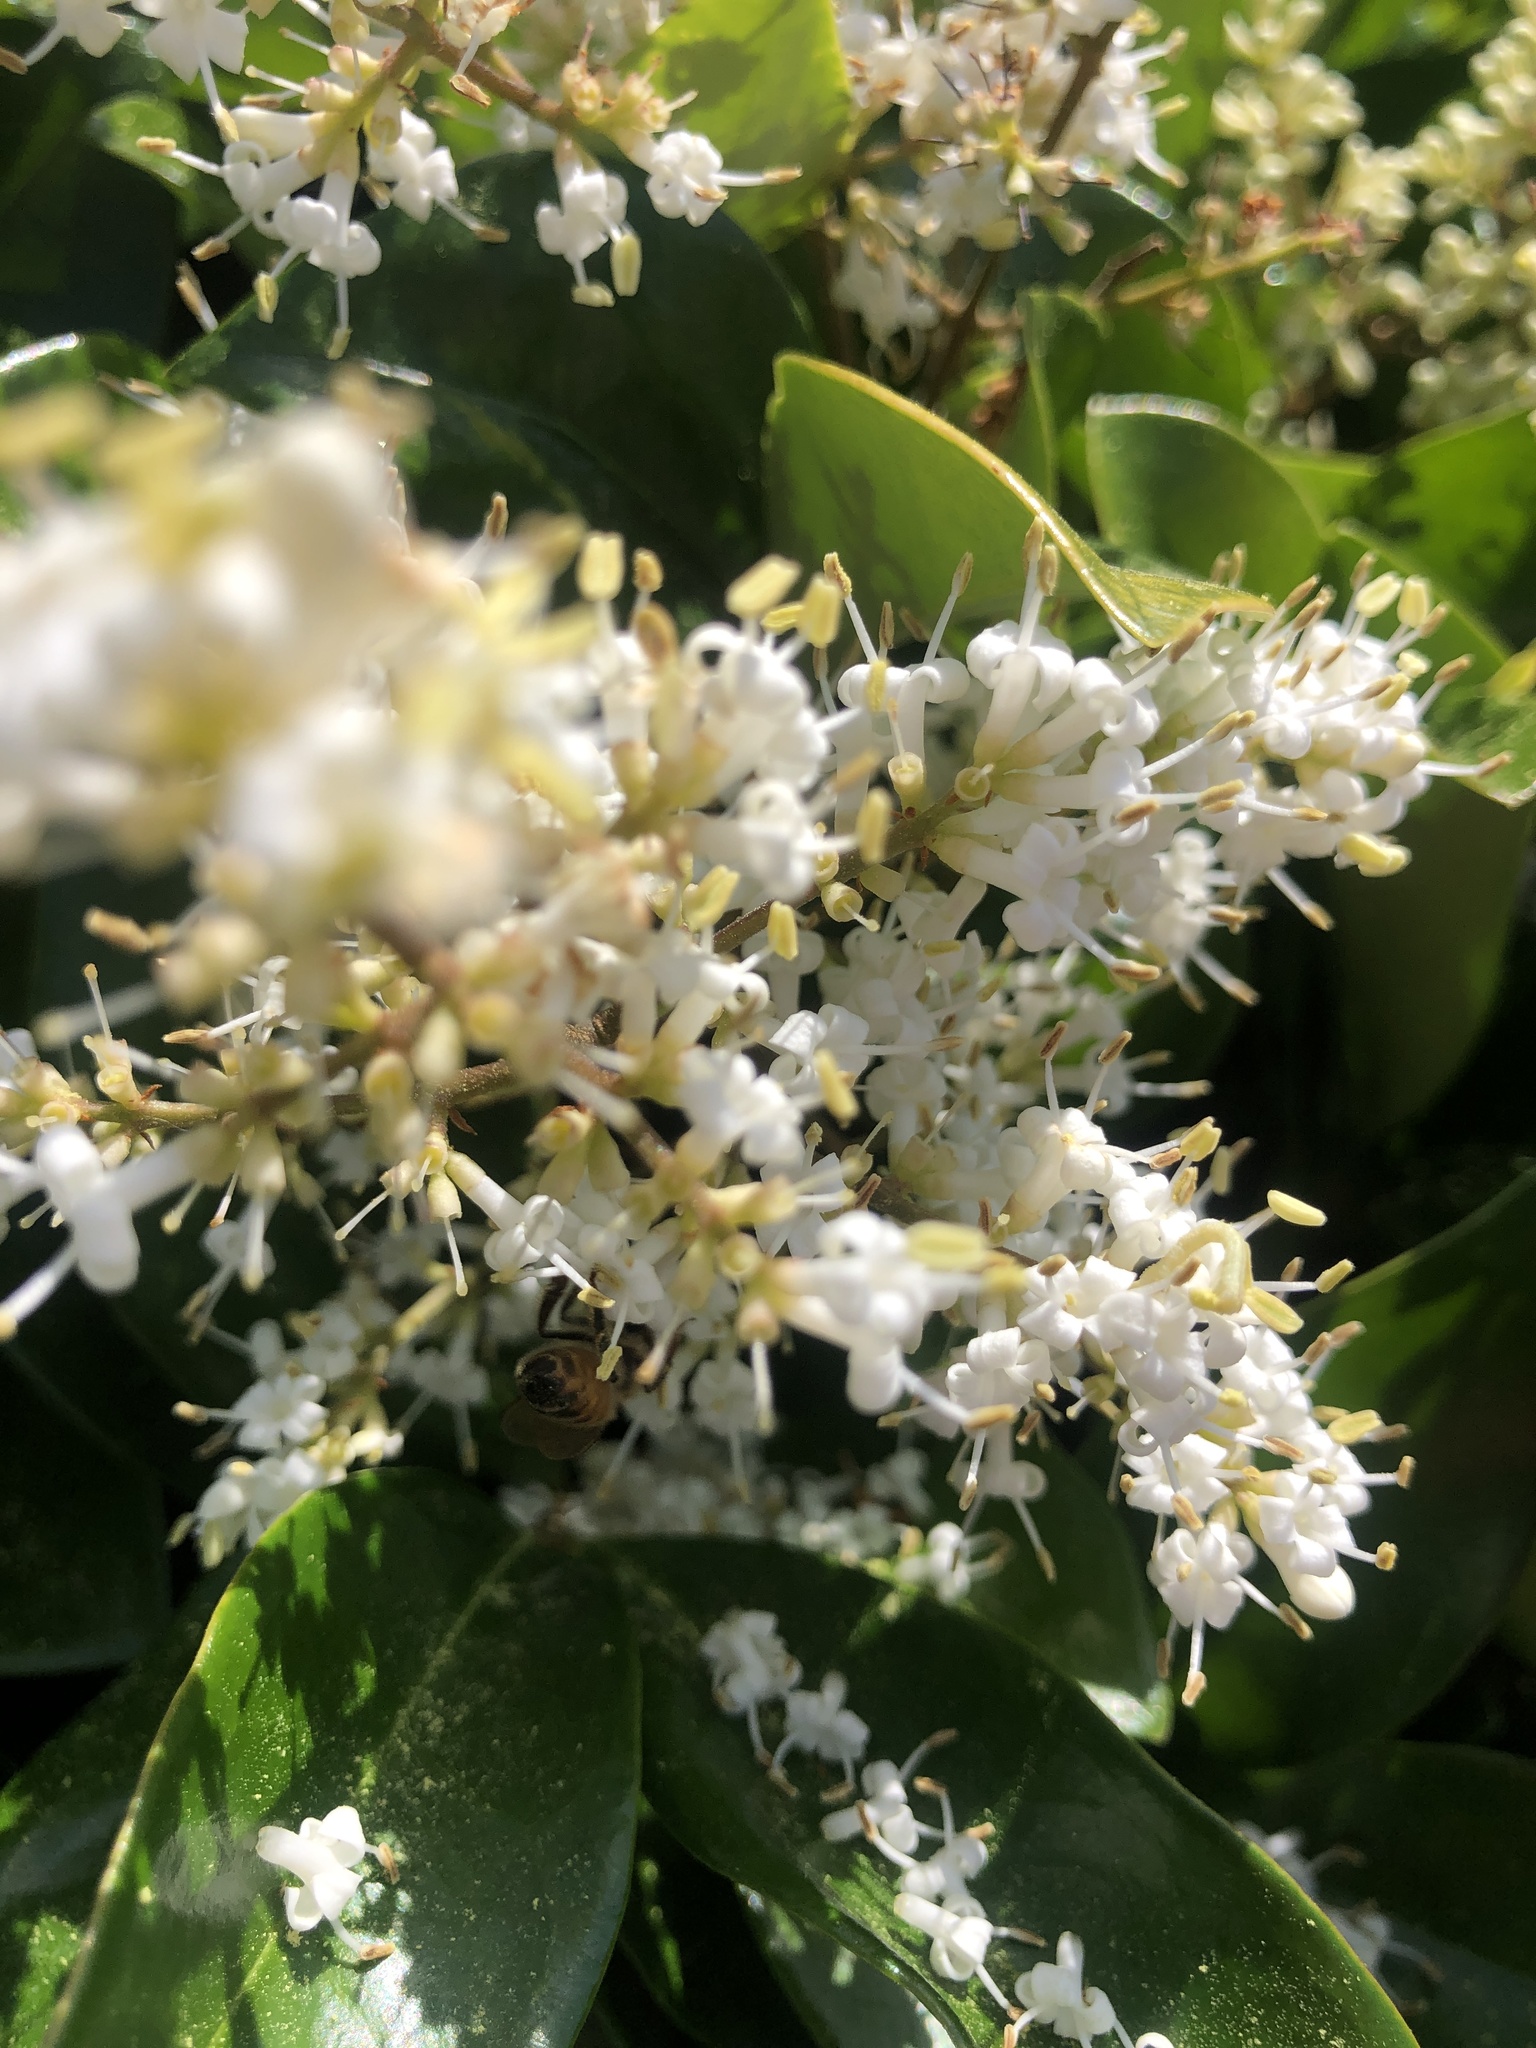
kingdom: Animalia
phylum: Arthropoda
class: Insecta
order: Hymenoptera
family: Apidae
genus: Apis
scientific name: Apis mellifera
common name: Honey bee
